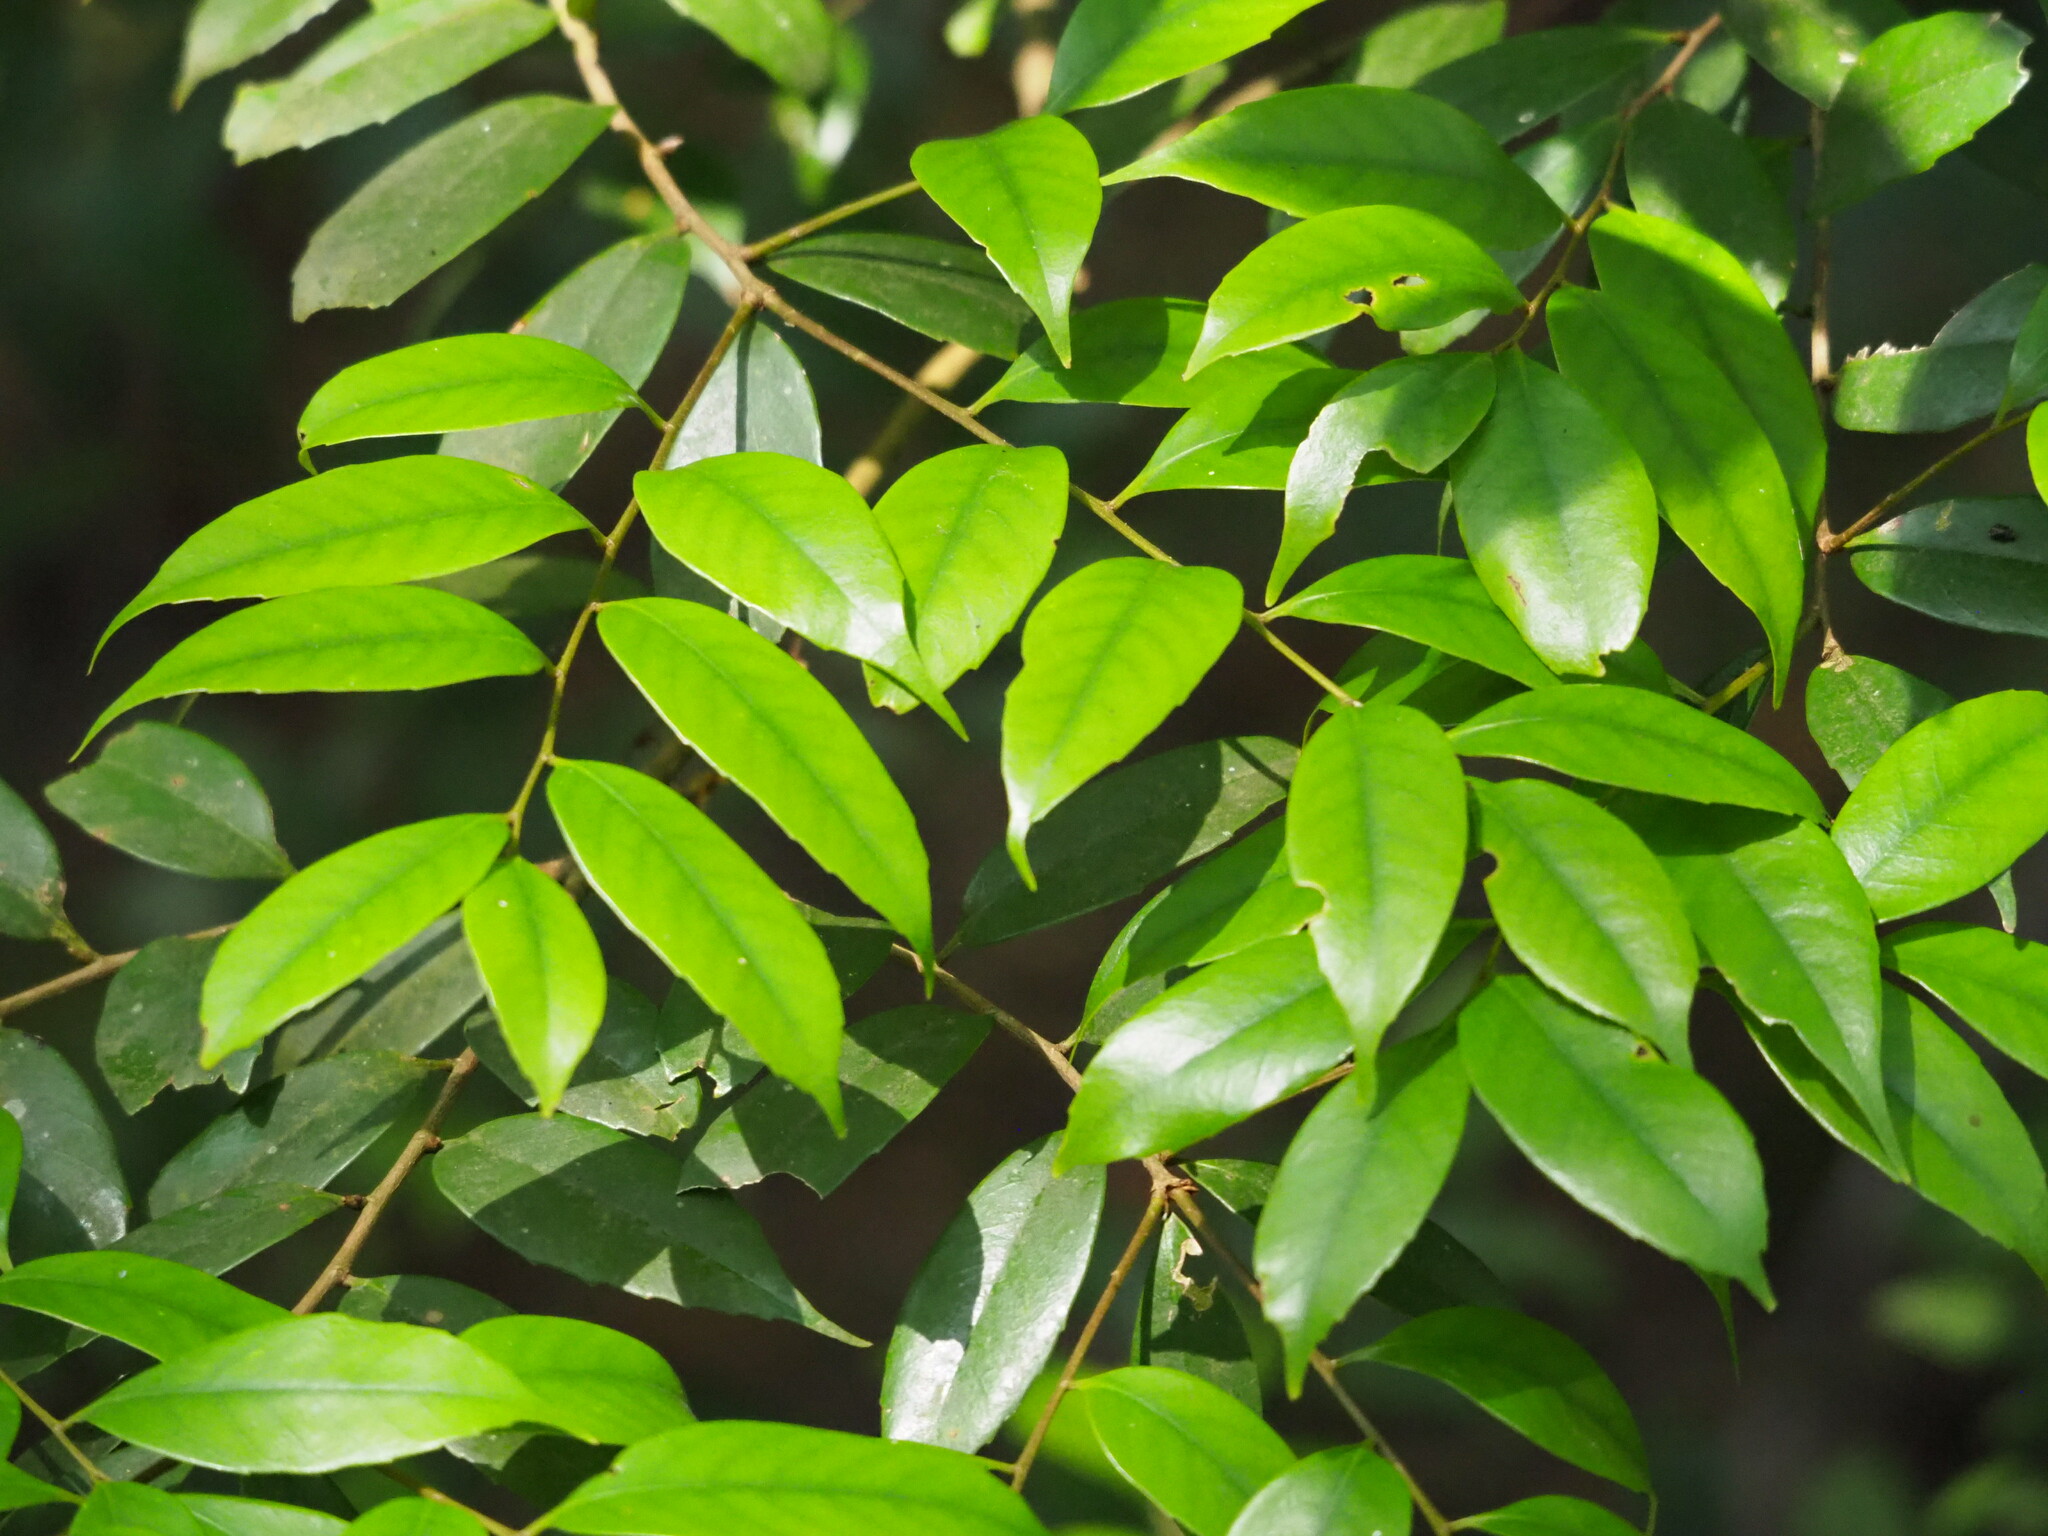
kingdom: Plantae
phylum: Tracheophyta
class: Magnoliopsida
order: Fagales
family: Fagaceae
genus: Lithocarpus
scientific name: Lithocarpus uraianus
